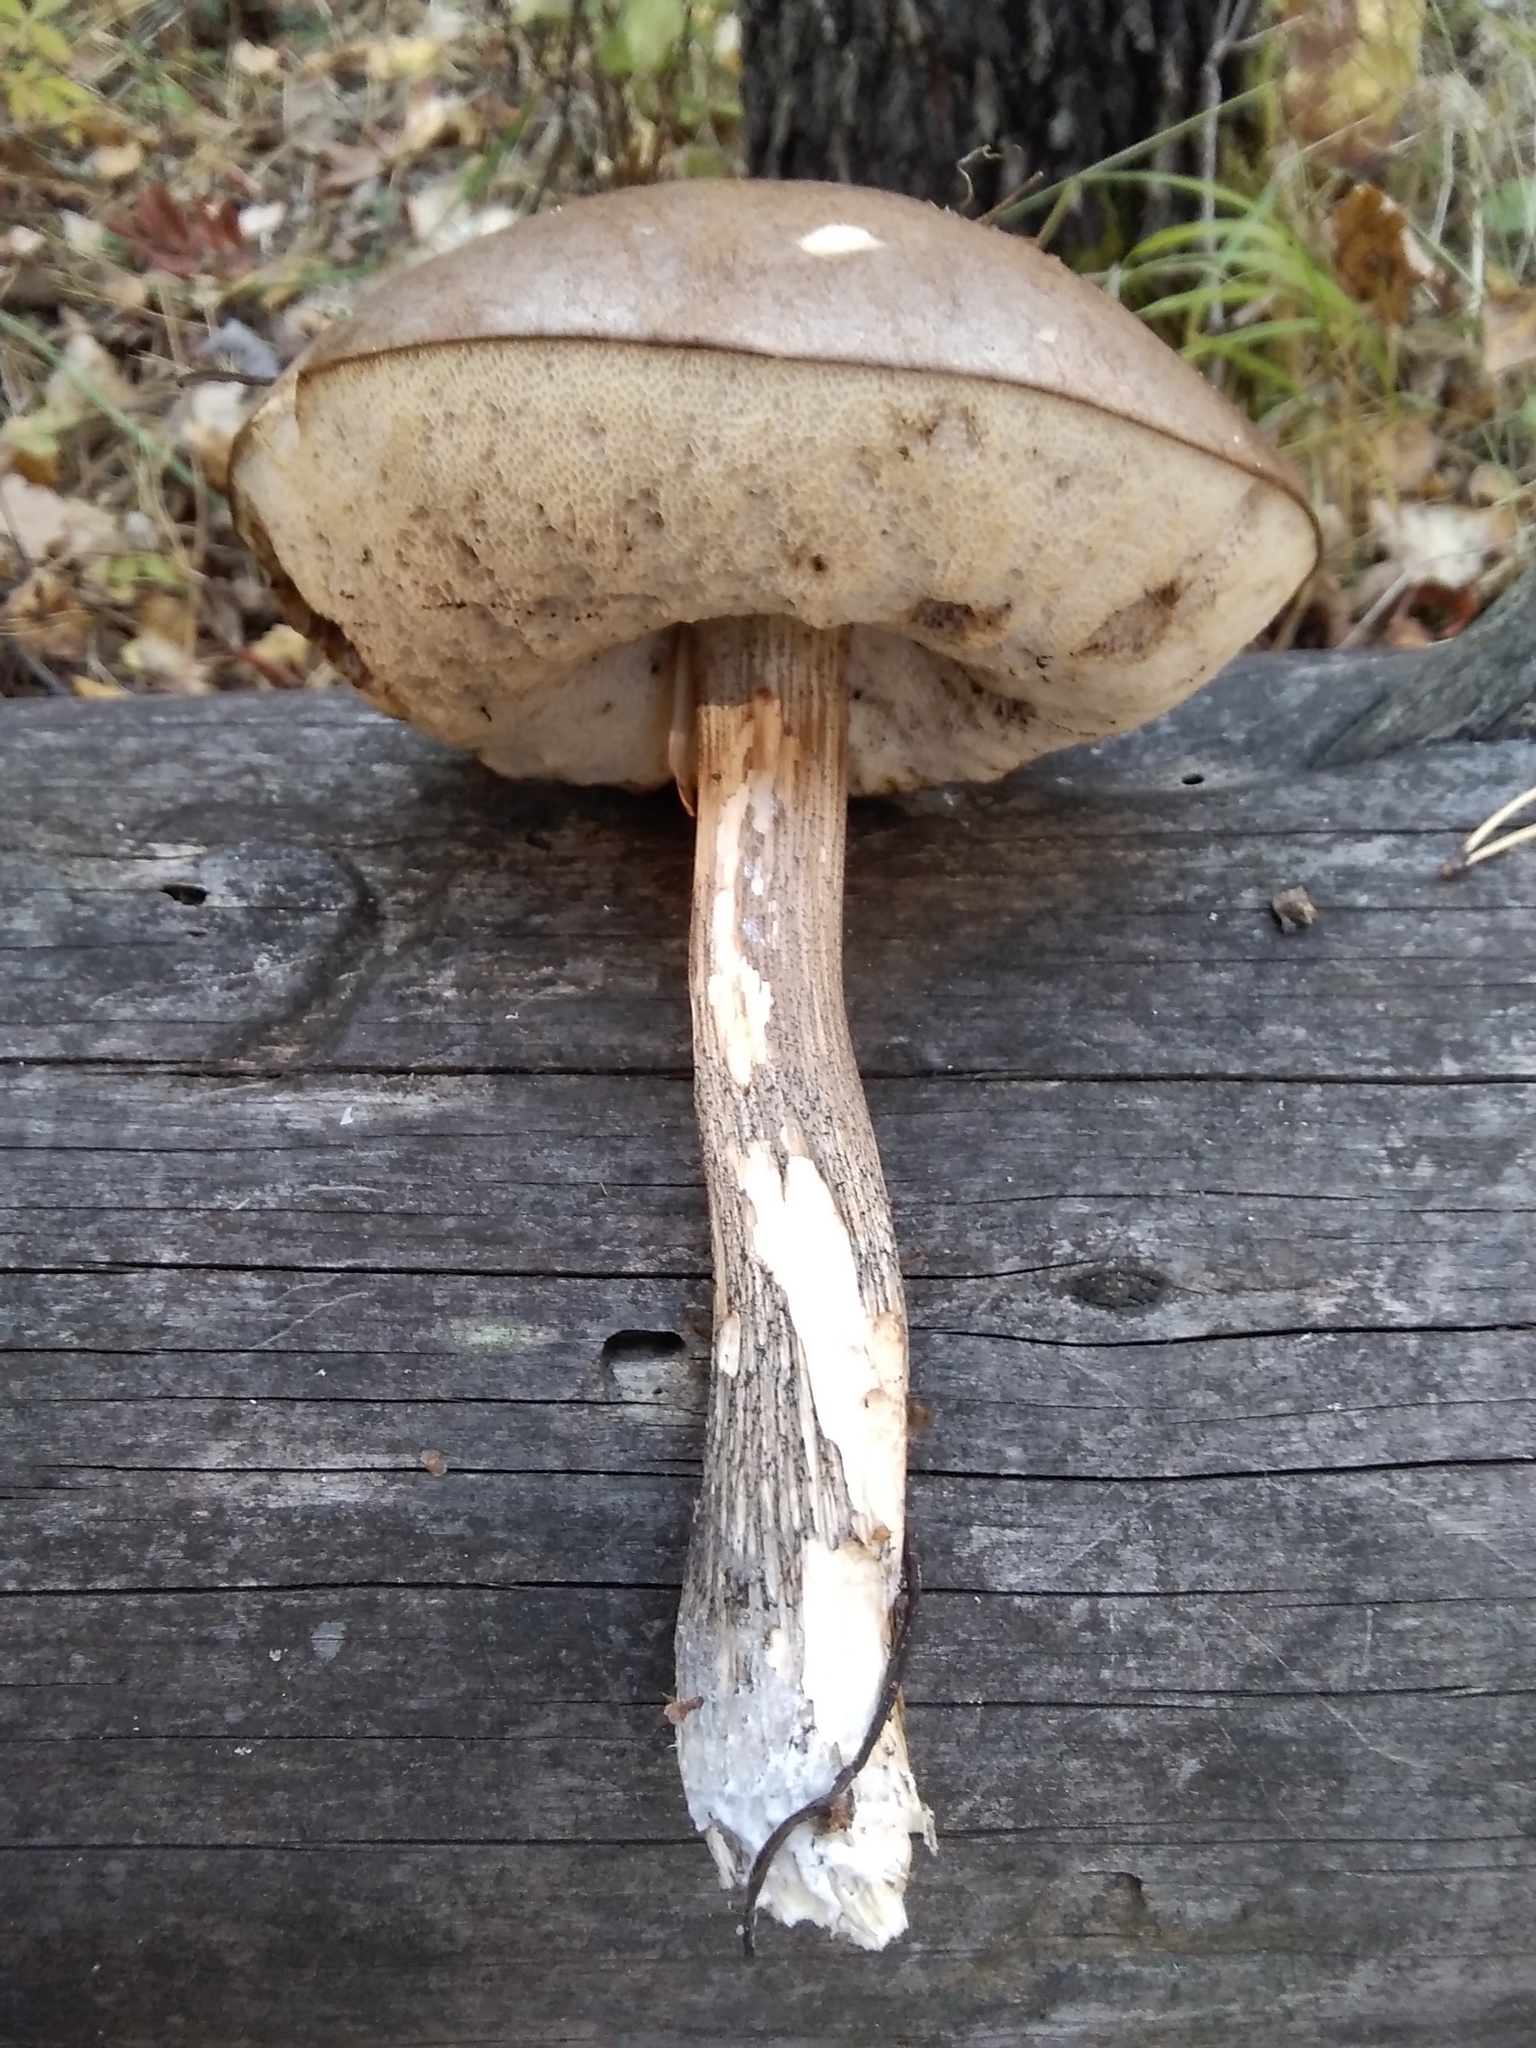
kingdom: Fungi
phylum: Basidiomycota
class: Agaricomycetes
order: Boletales
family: Boletaceae
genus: Leccinum
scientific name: Leccinum scabrum
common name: Blushing bolete
